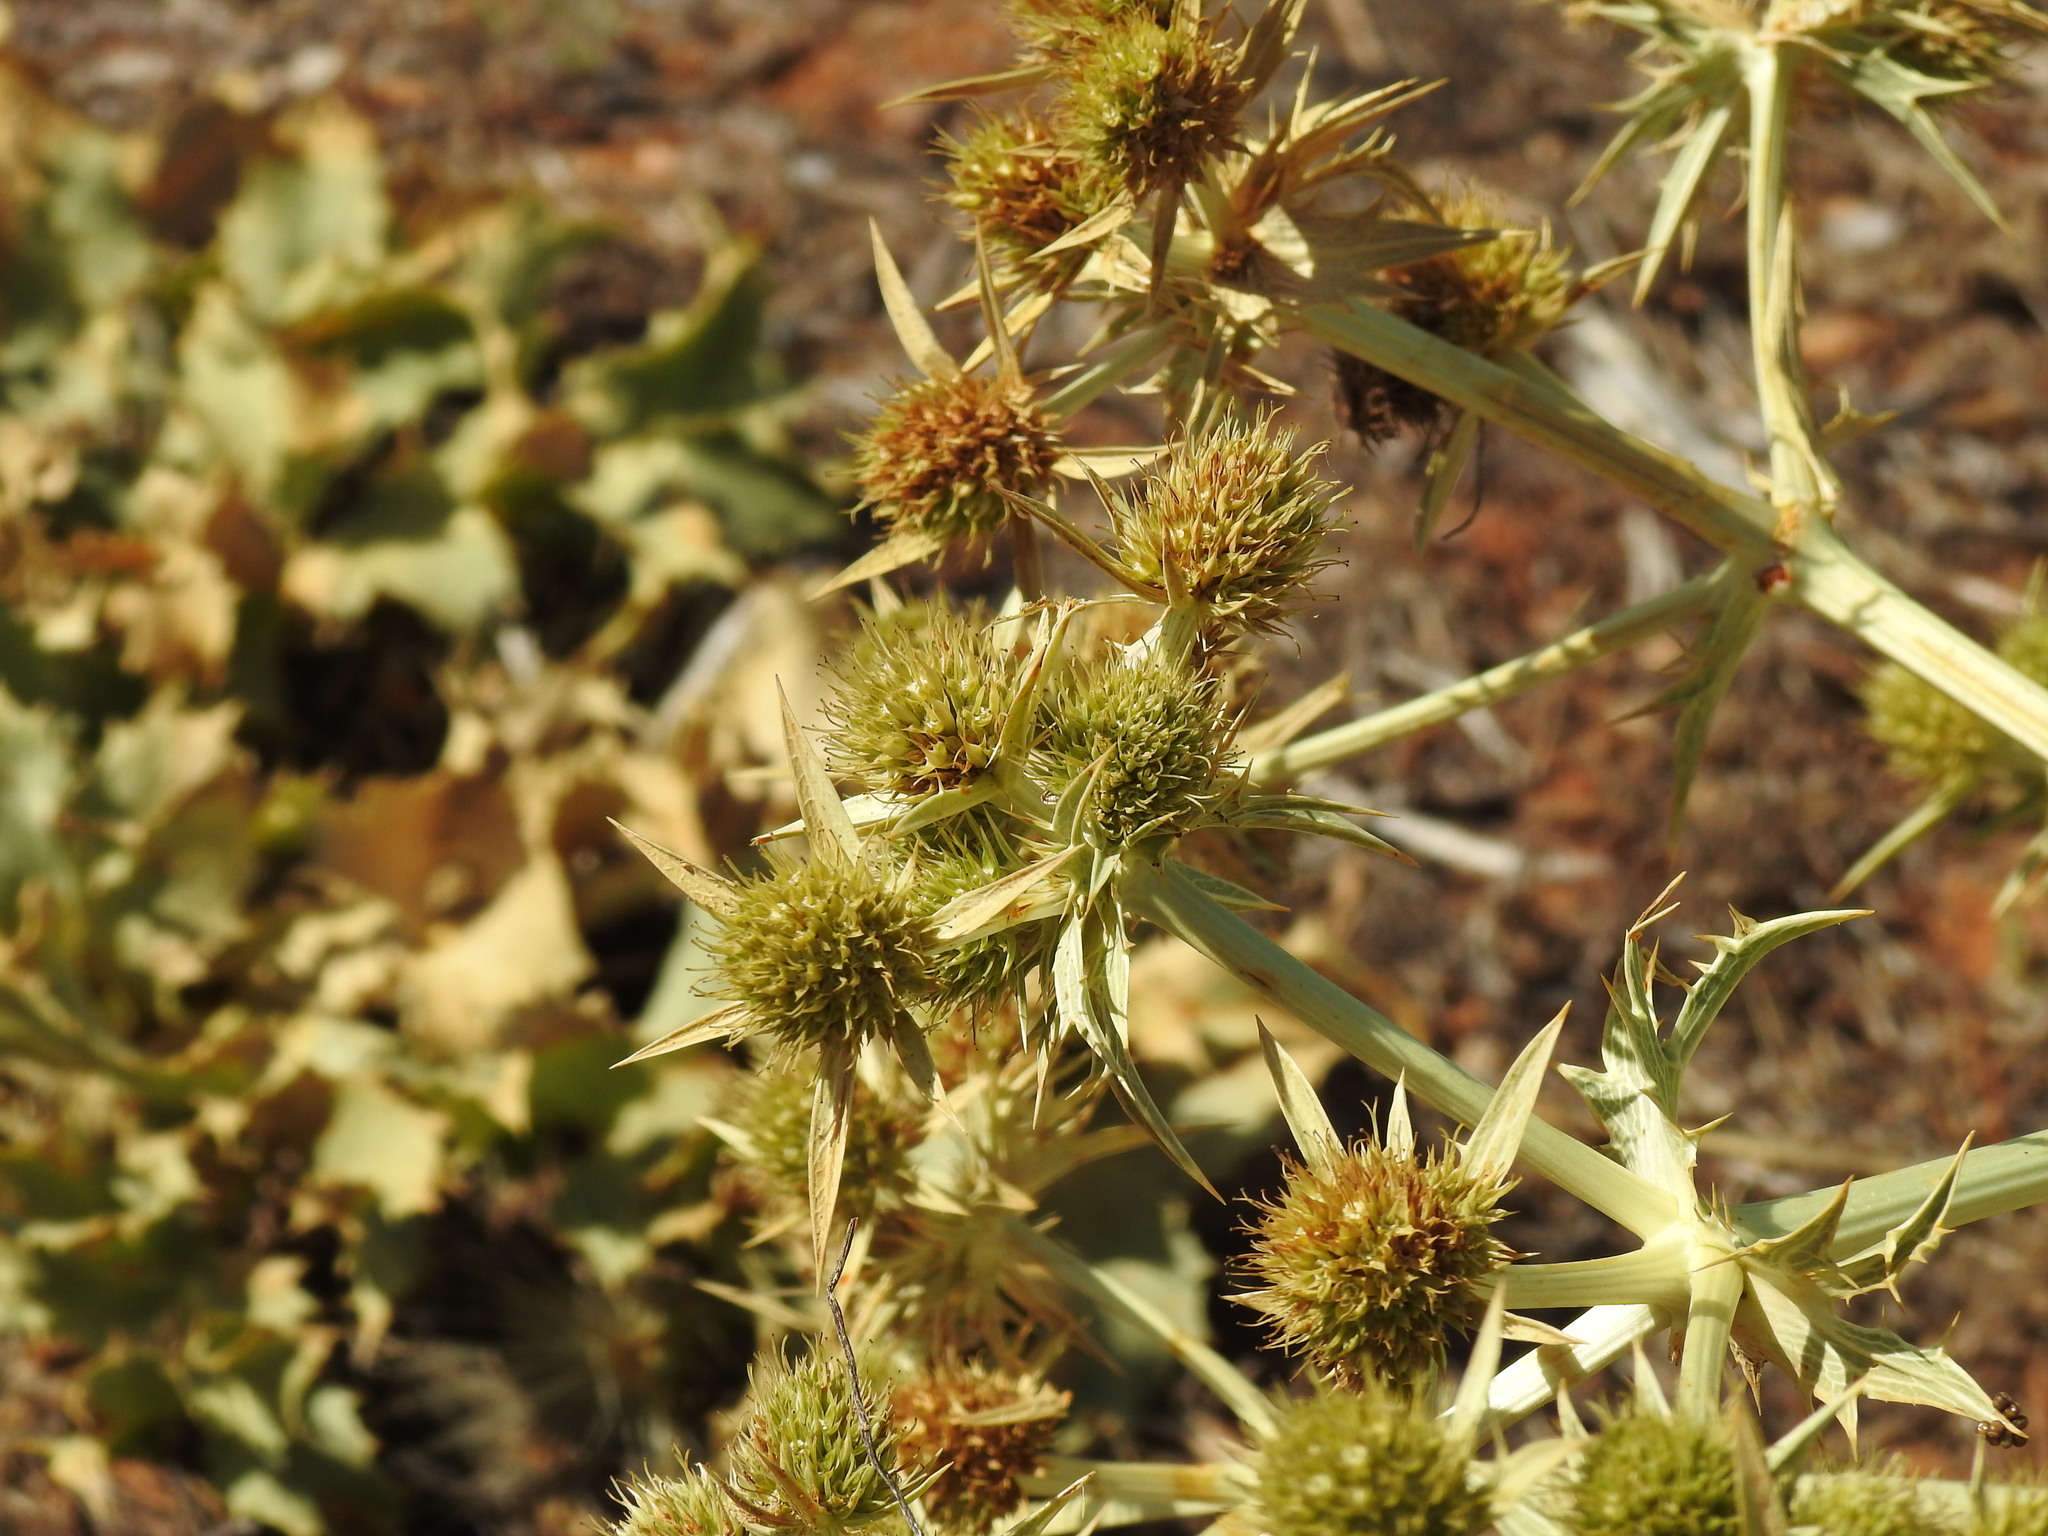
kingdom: Plantae
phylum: Tracheophyta
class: Magnoliopsida
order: Apiales
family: Apiaceae
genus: Eryngium
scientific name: Eryngium campestre
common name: Field eryngo
